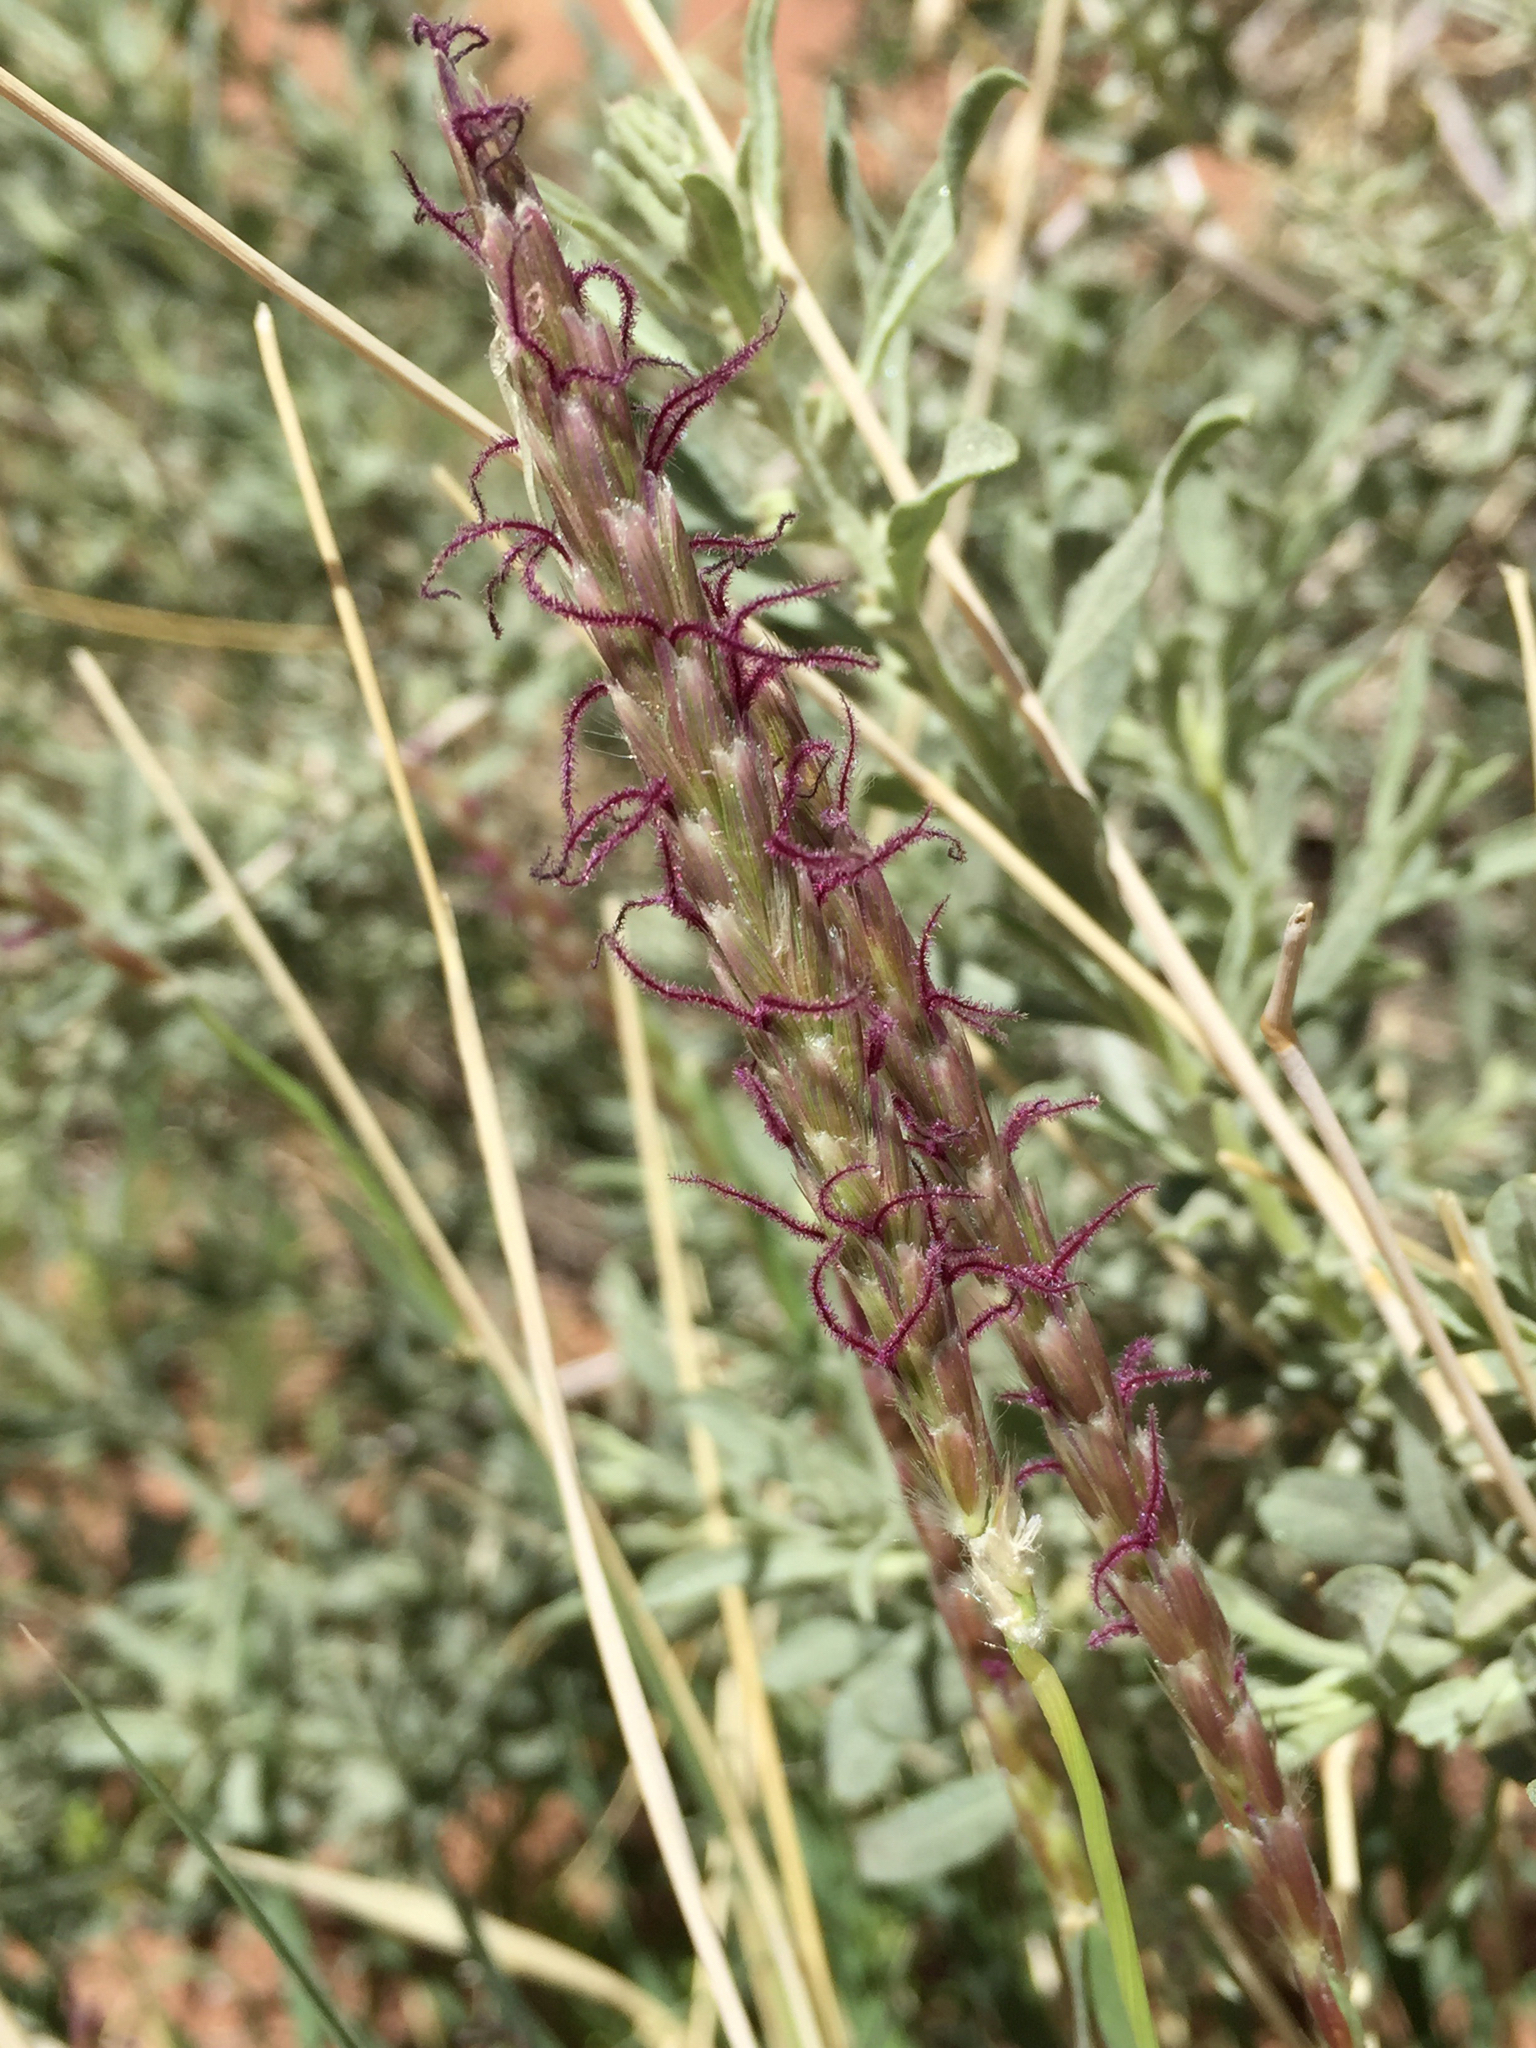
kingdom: Plantae
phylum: Tracheophyta
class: Liliopsida
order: Poales
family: Poaceae
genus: Hilaria
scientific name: Hilaria rigida
